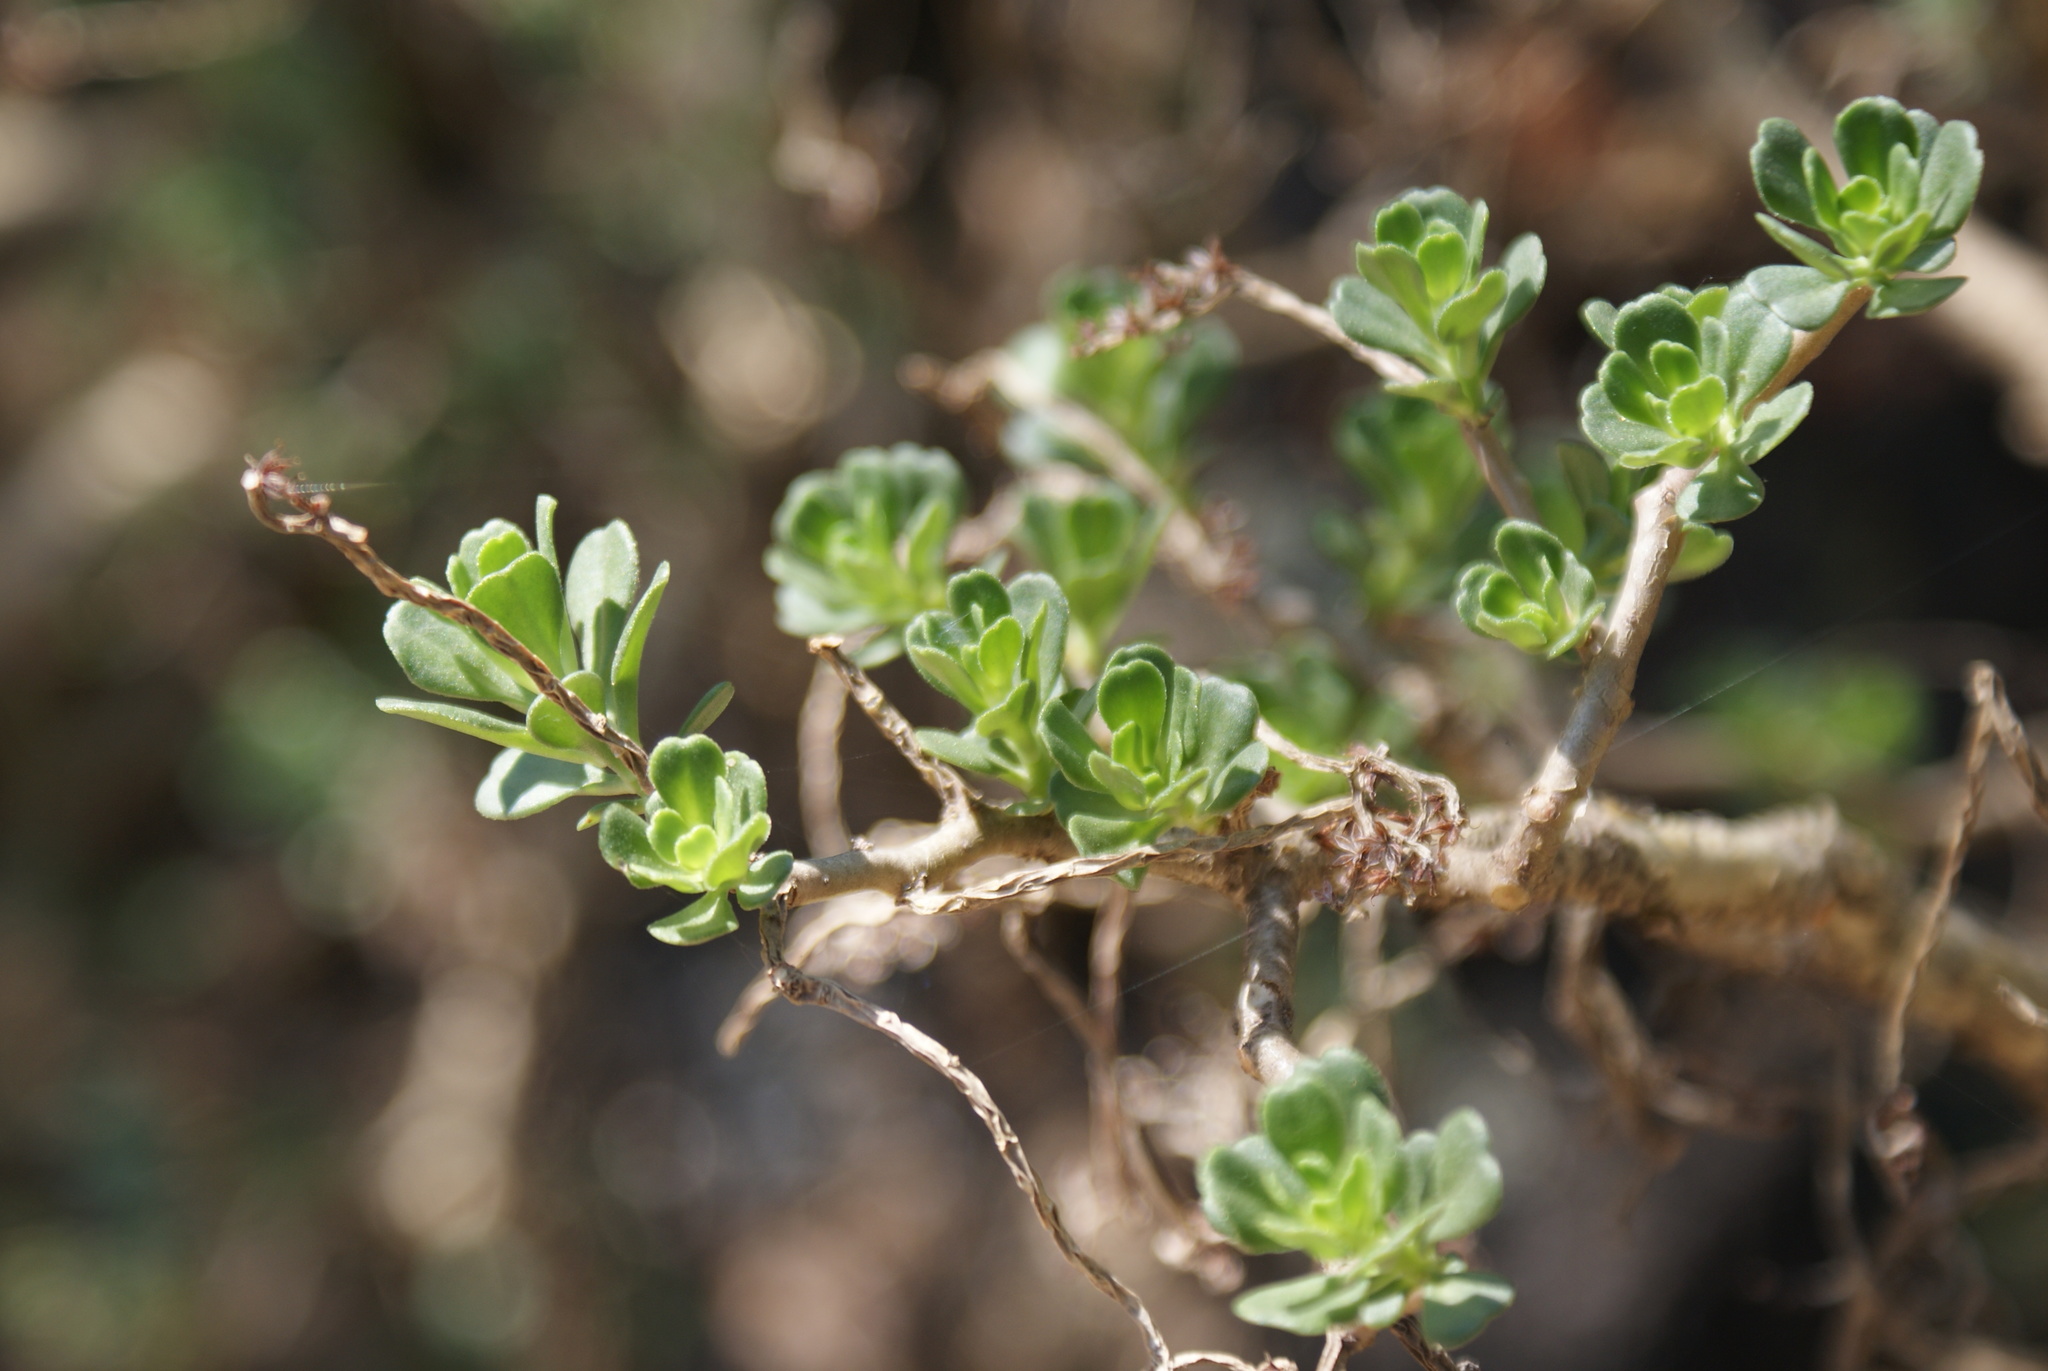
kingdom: Plantae
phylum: Tracheophyta
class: Magnoliopsida
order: Saxifragales
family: Crassulaceae
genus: Sedum
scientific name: Sedum oxypetalum
